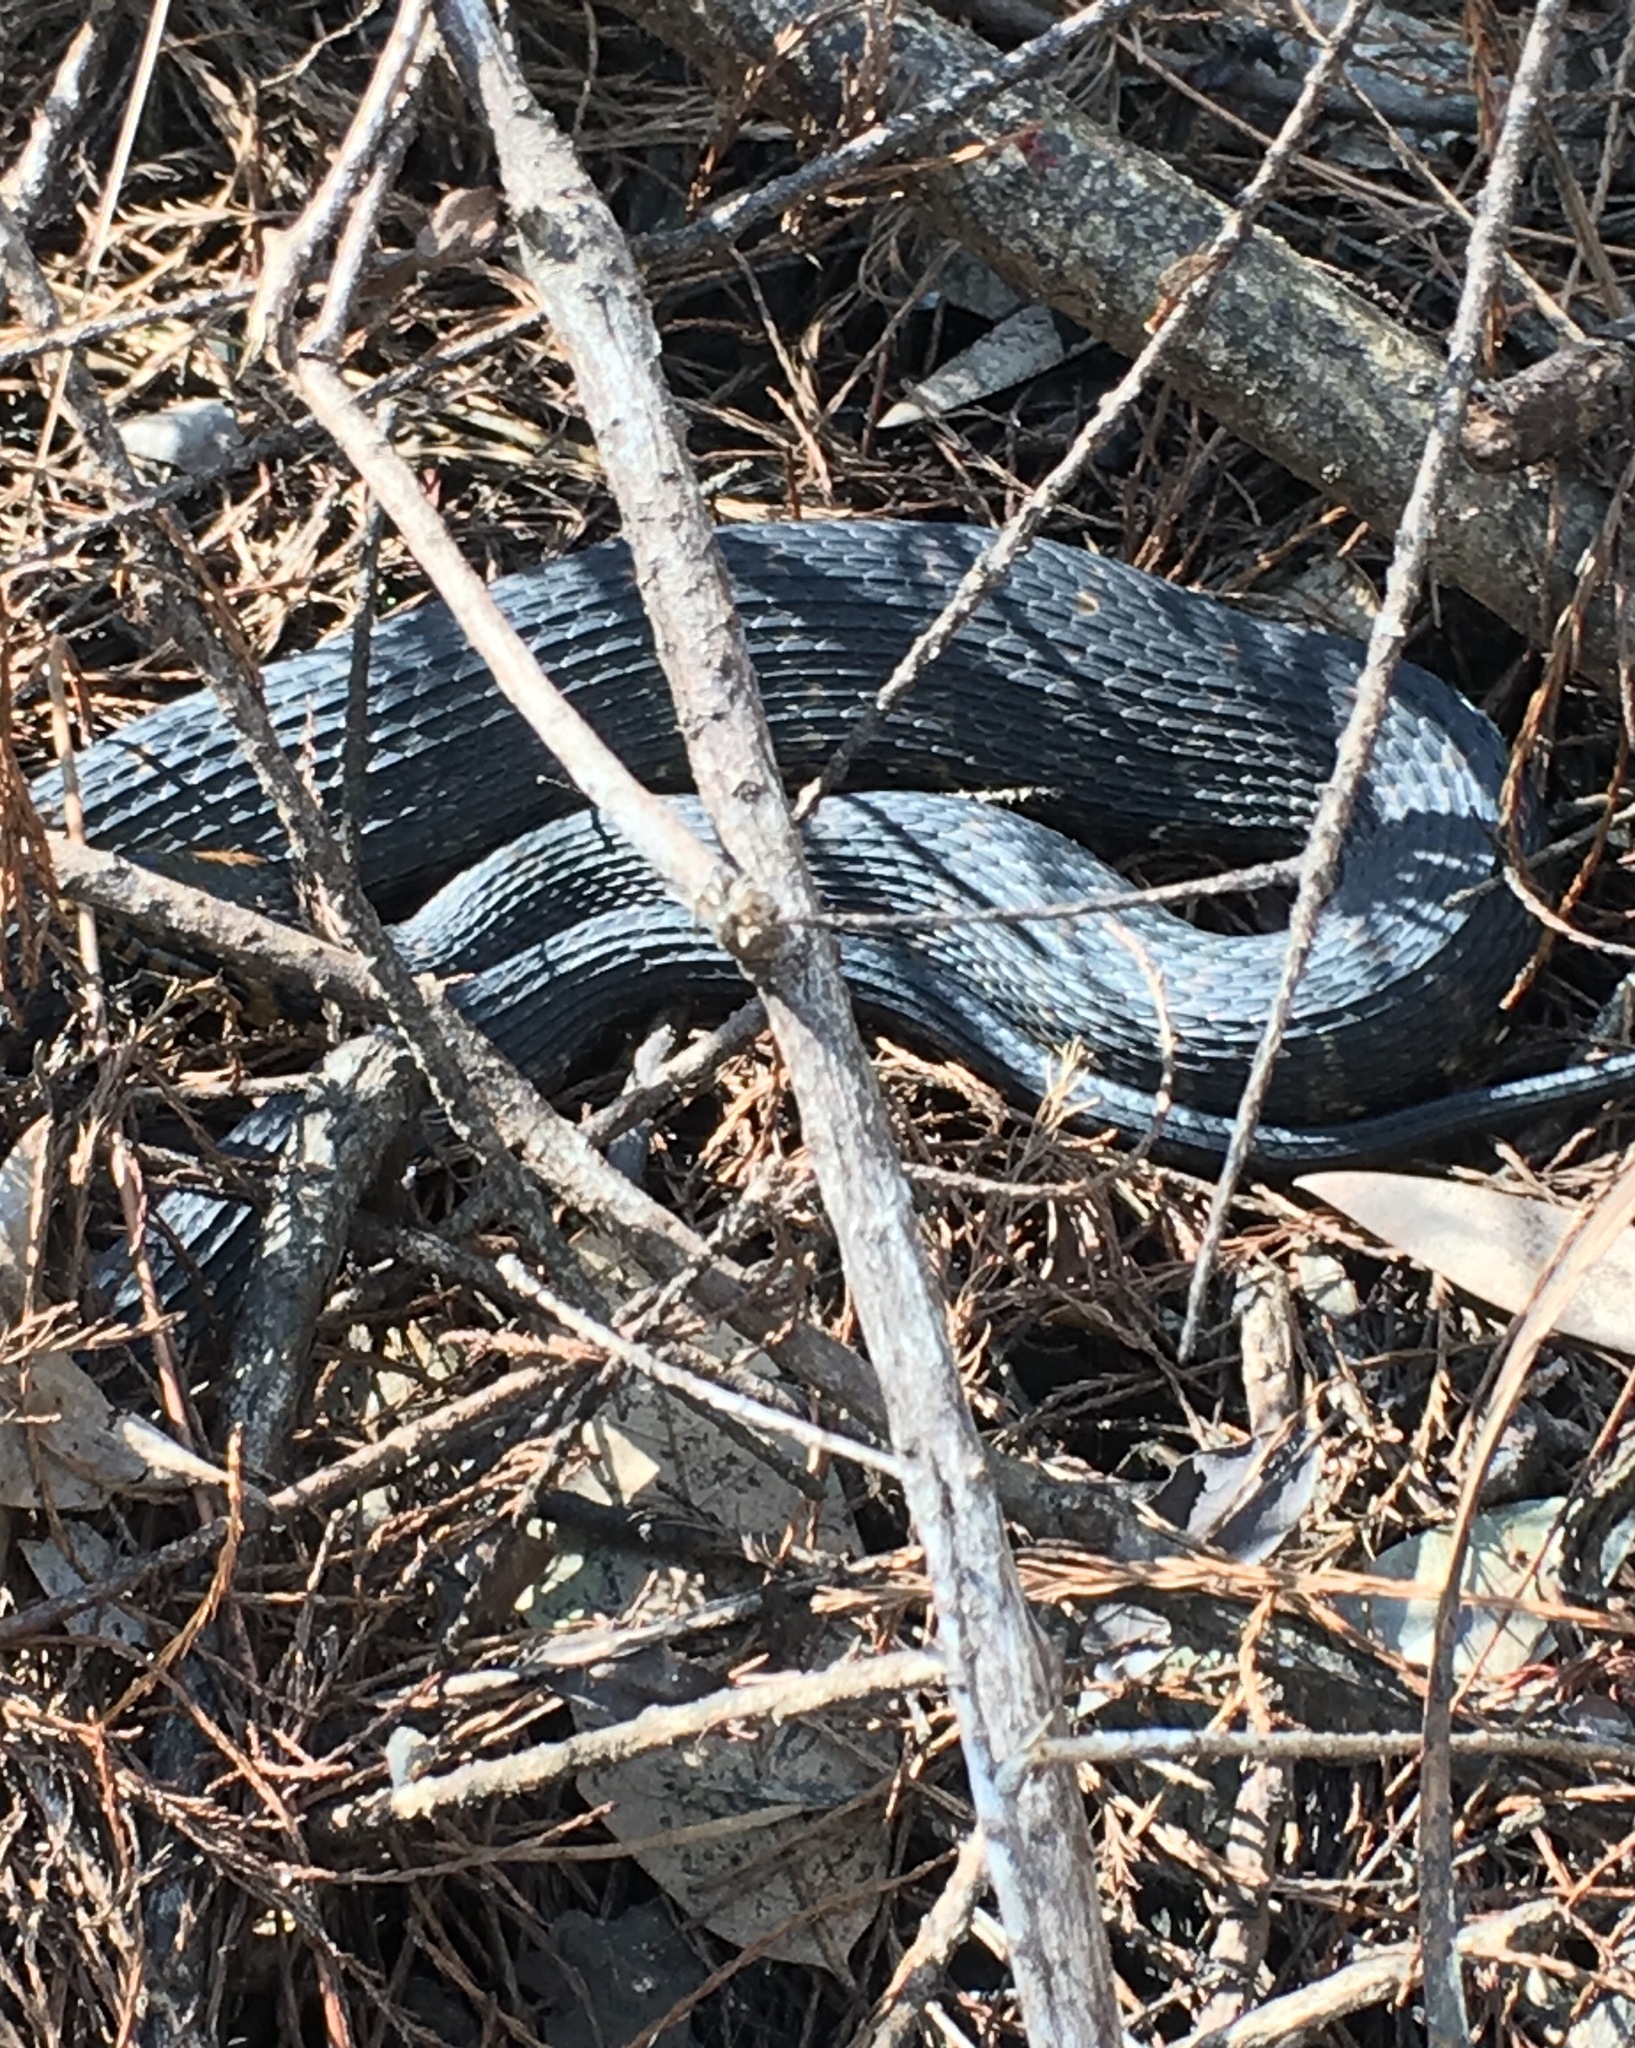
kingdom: Animalia
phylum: Chordata
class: Squamata
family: Colubridae
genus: Nerodia
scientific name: Nerodia fasciata
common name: Southern water snake
